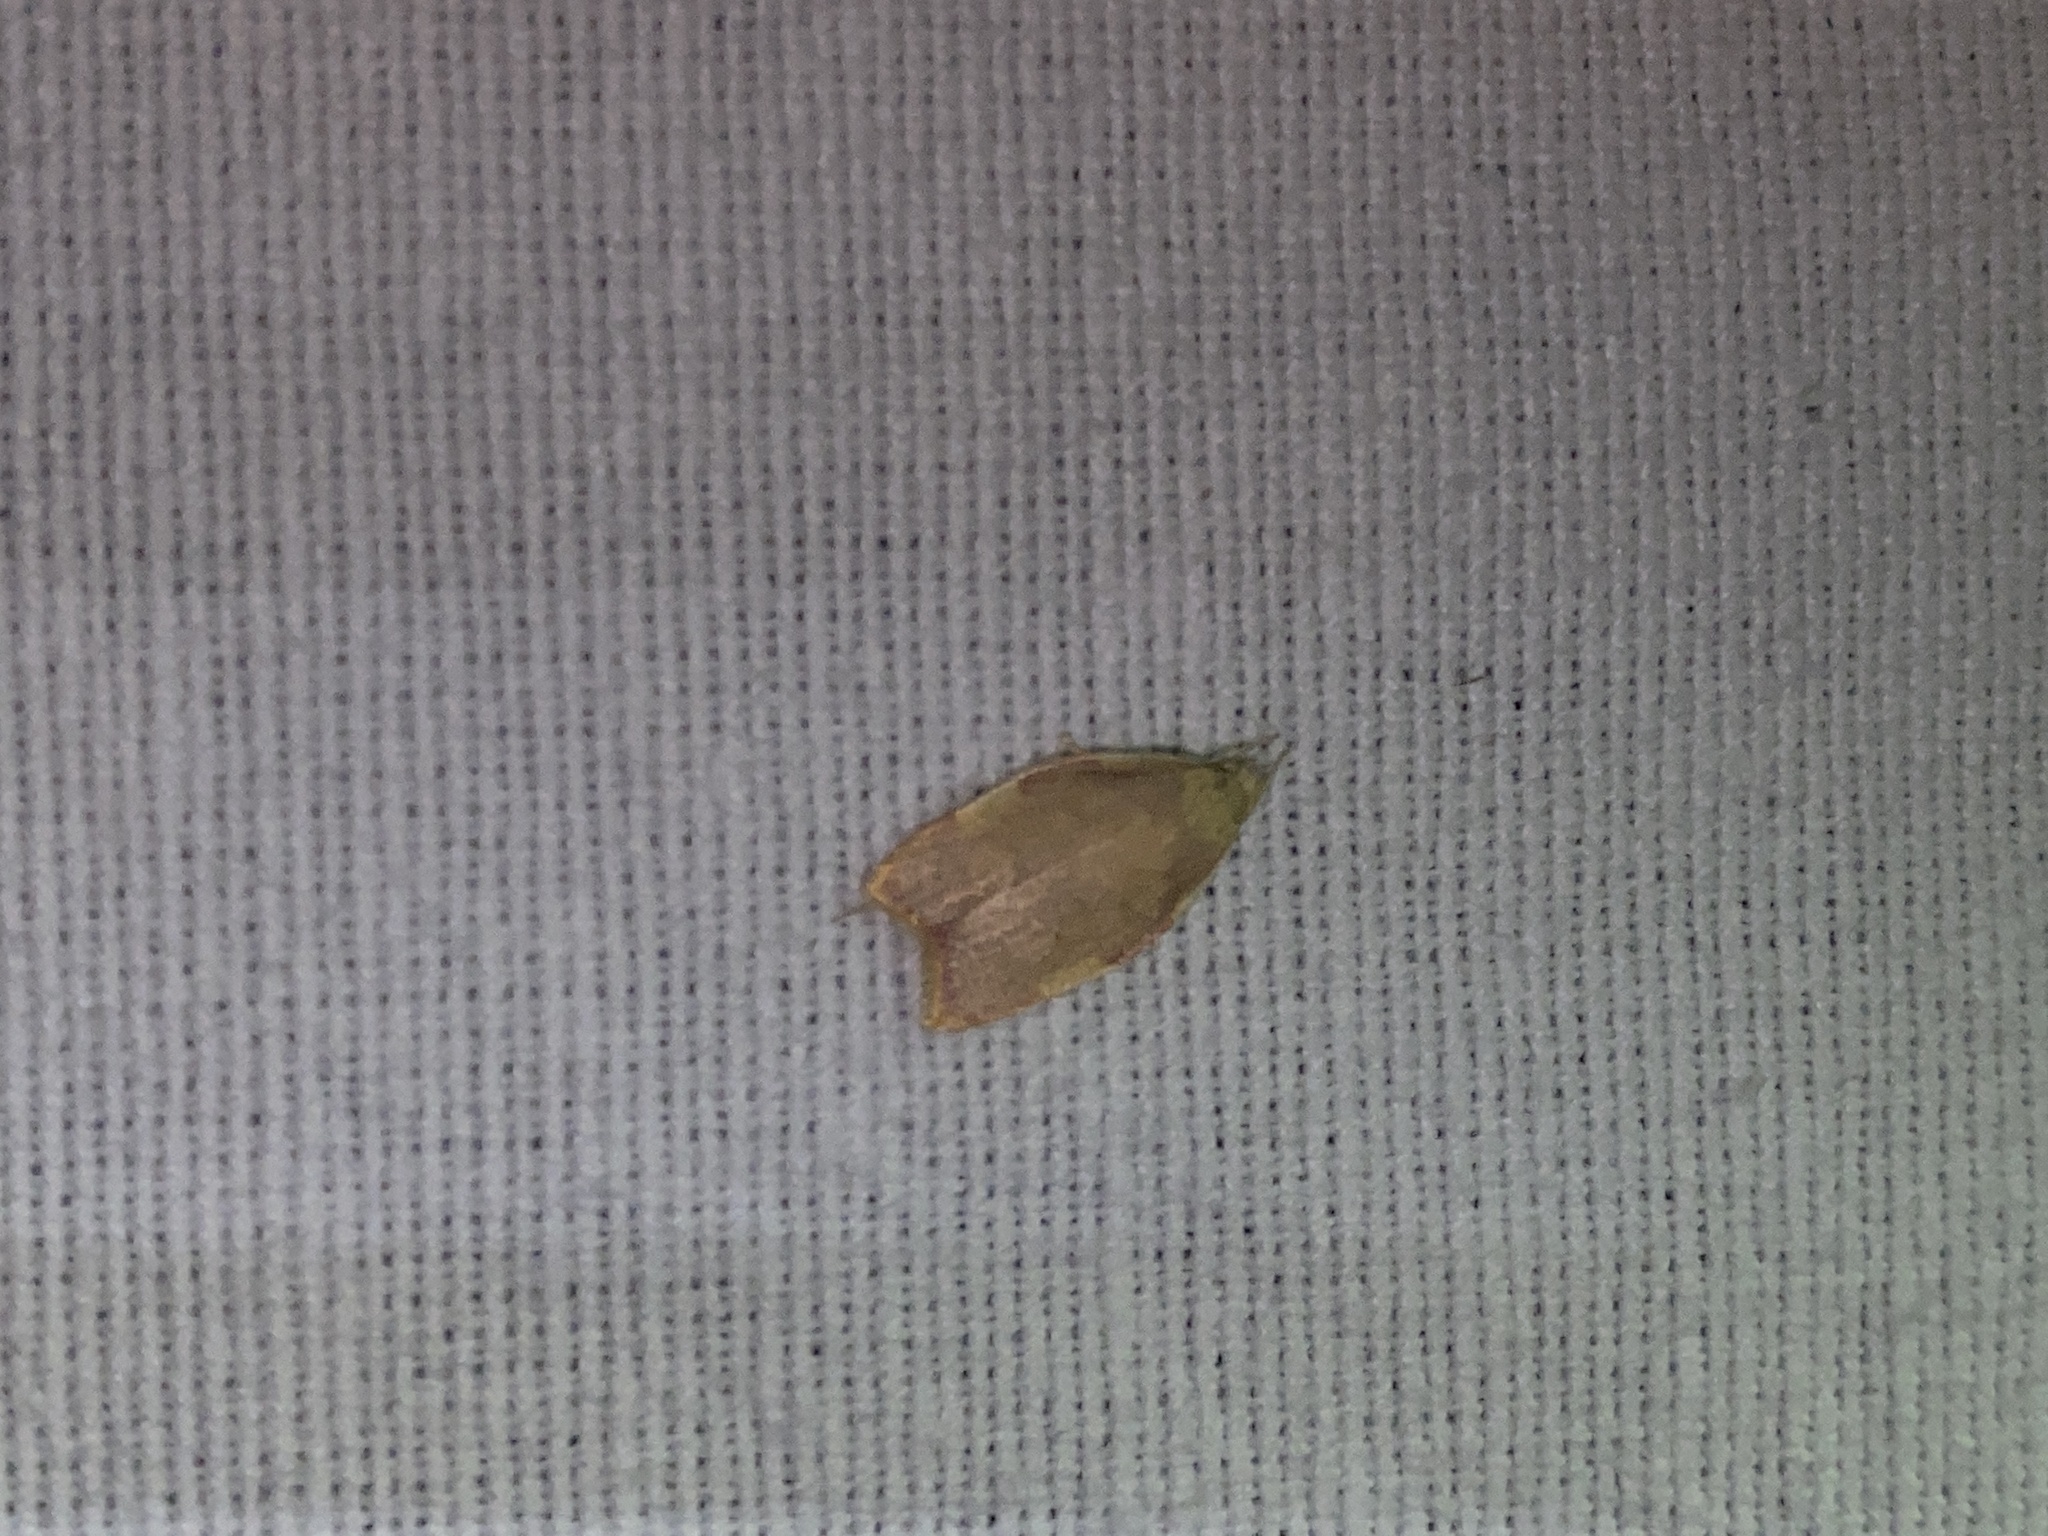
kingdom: Animalia
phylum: Arthropoda
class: Insecta
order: Lepidoptera
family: Peleopodidae
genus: Carcina
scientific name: Carcina quercana
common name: Moth
